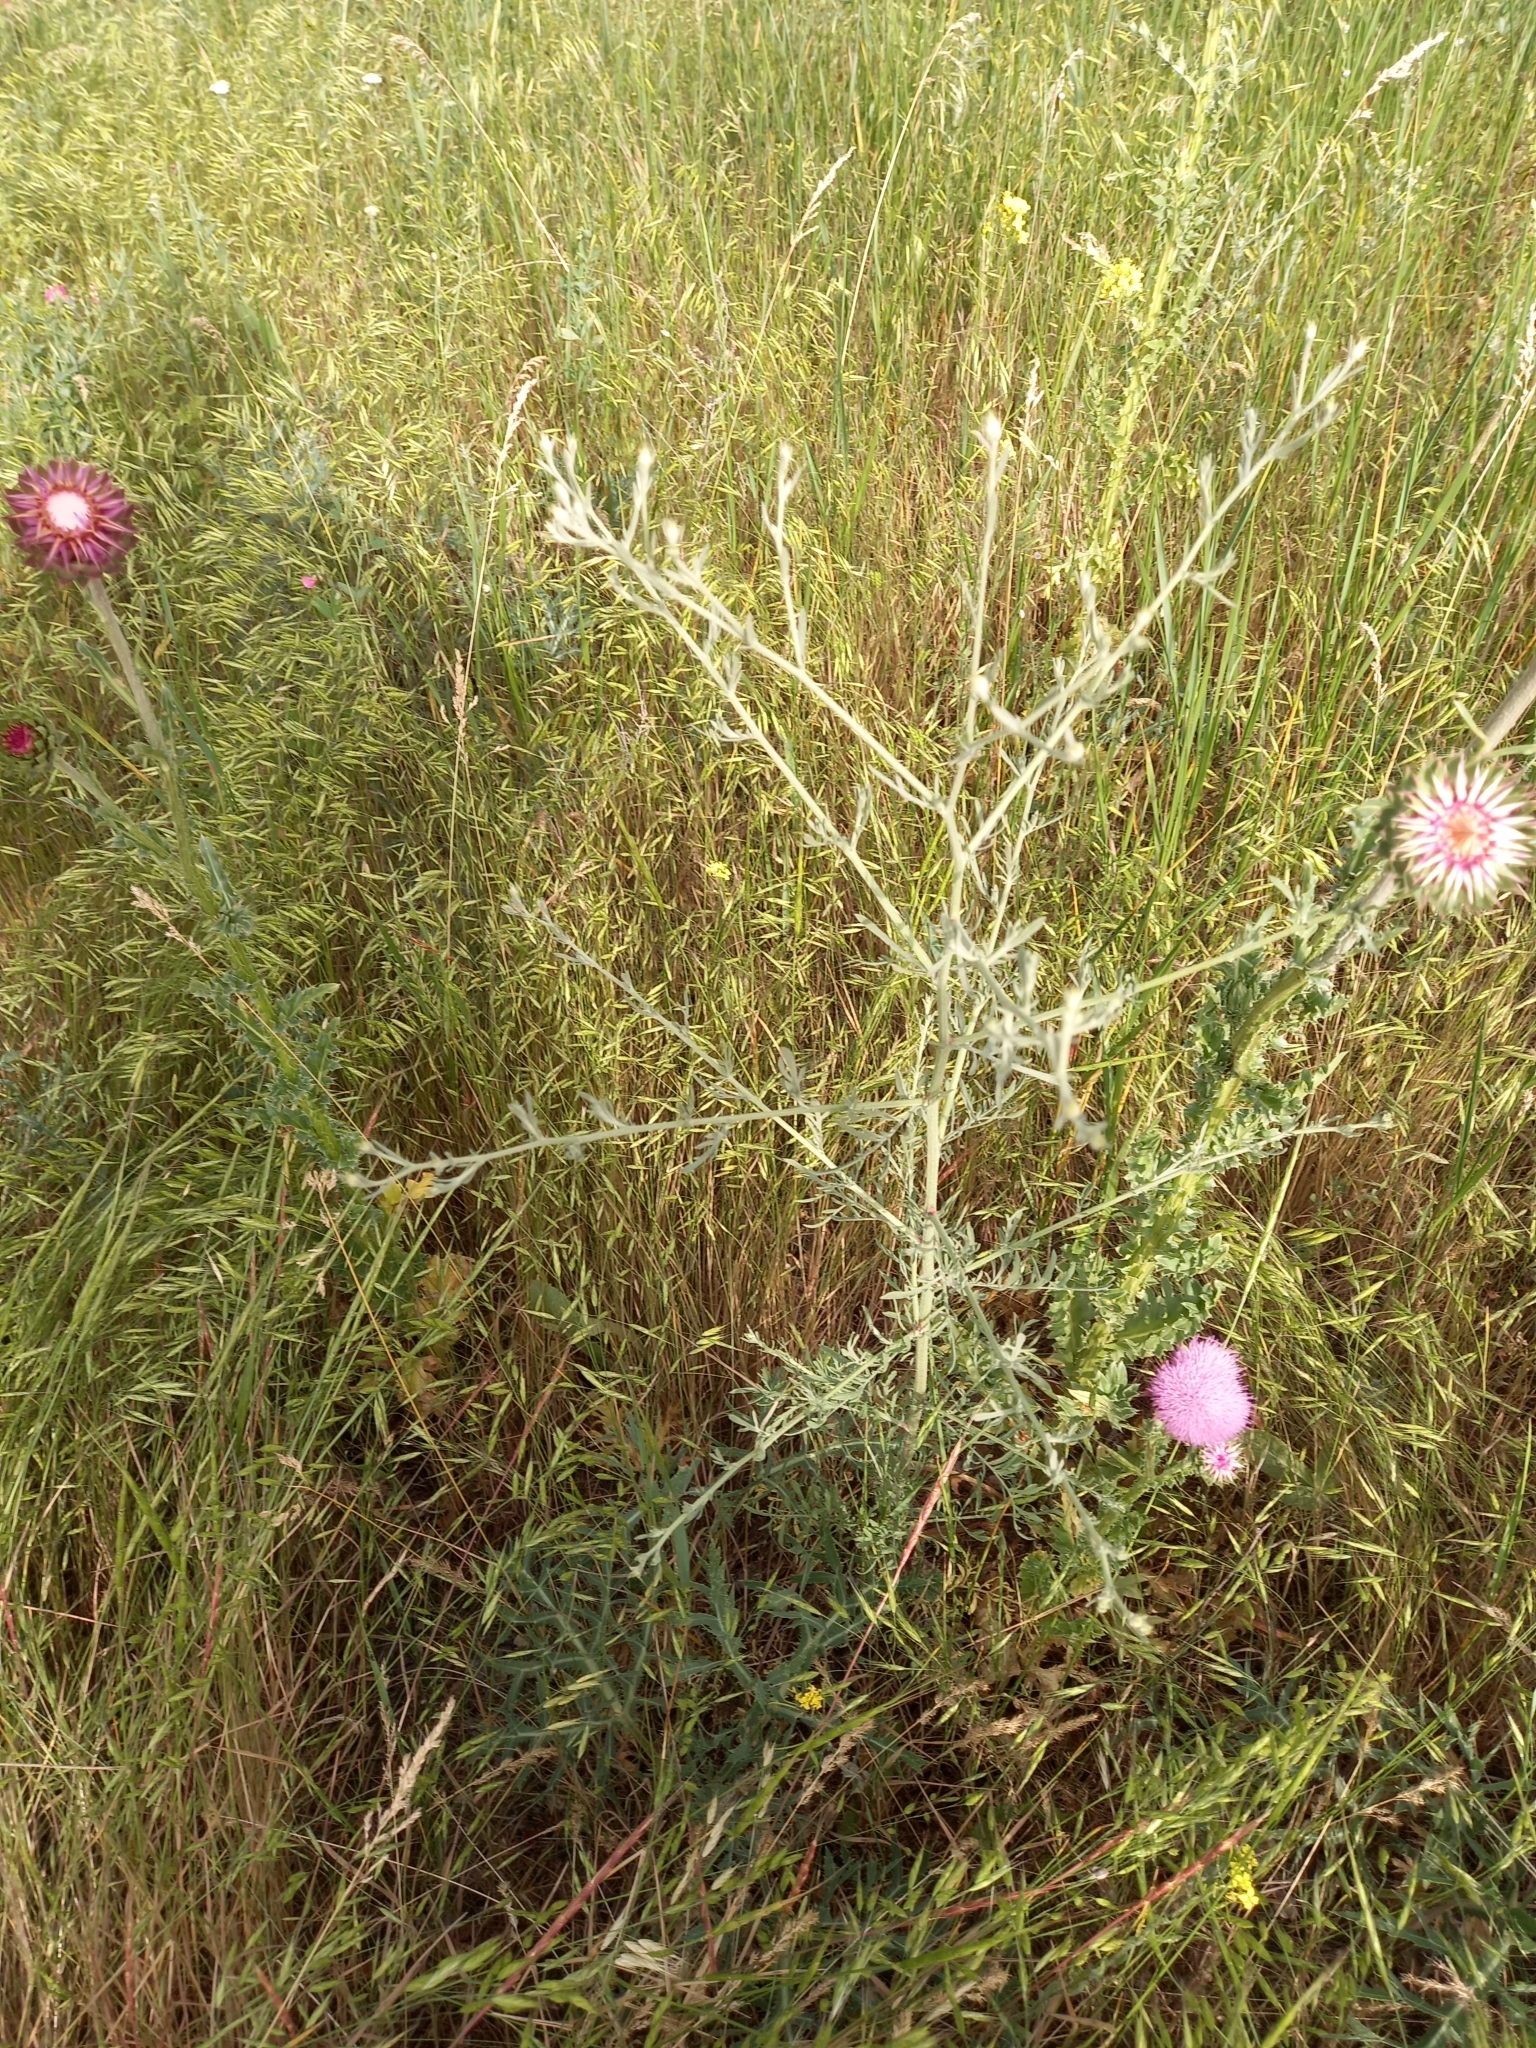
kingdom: Plantae
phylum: Tracheophyta
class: Magnoliopsida
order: Asterales
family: Asteraceae
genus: Centaurea
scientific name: Centaurea diffusa
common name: Diffuse knapweed
